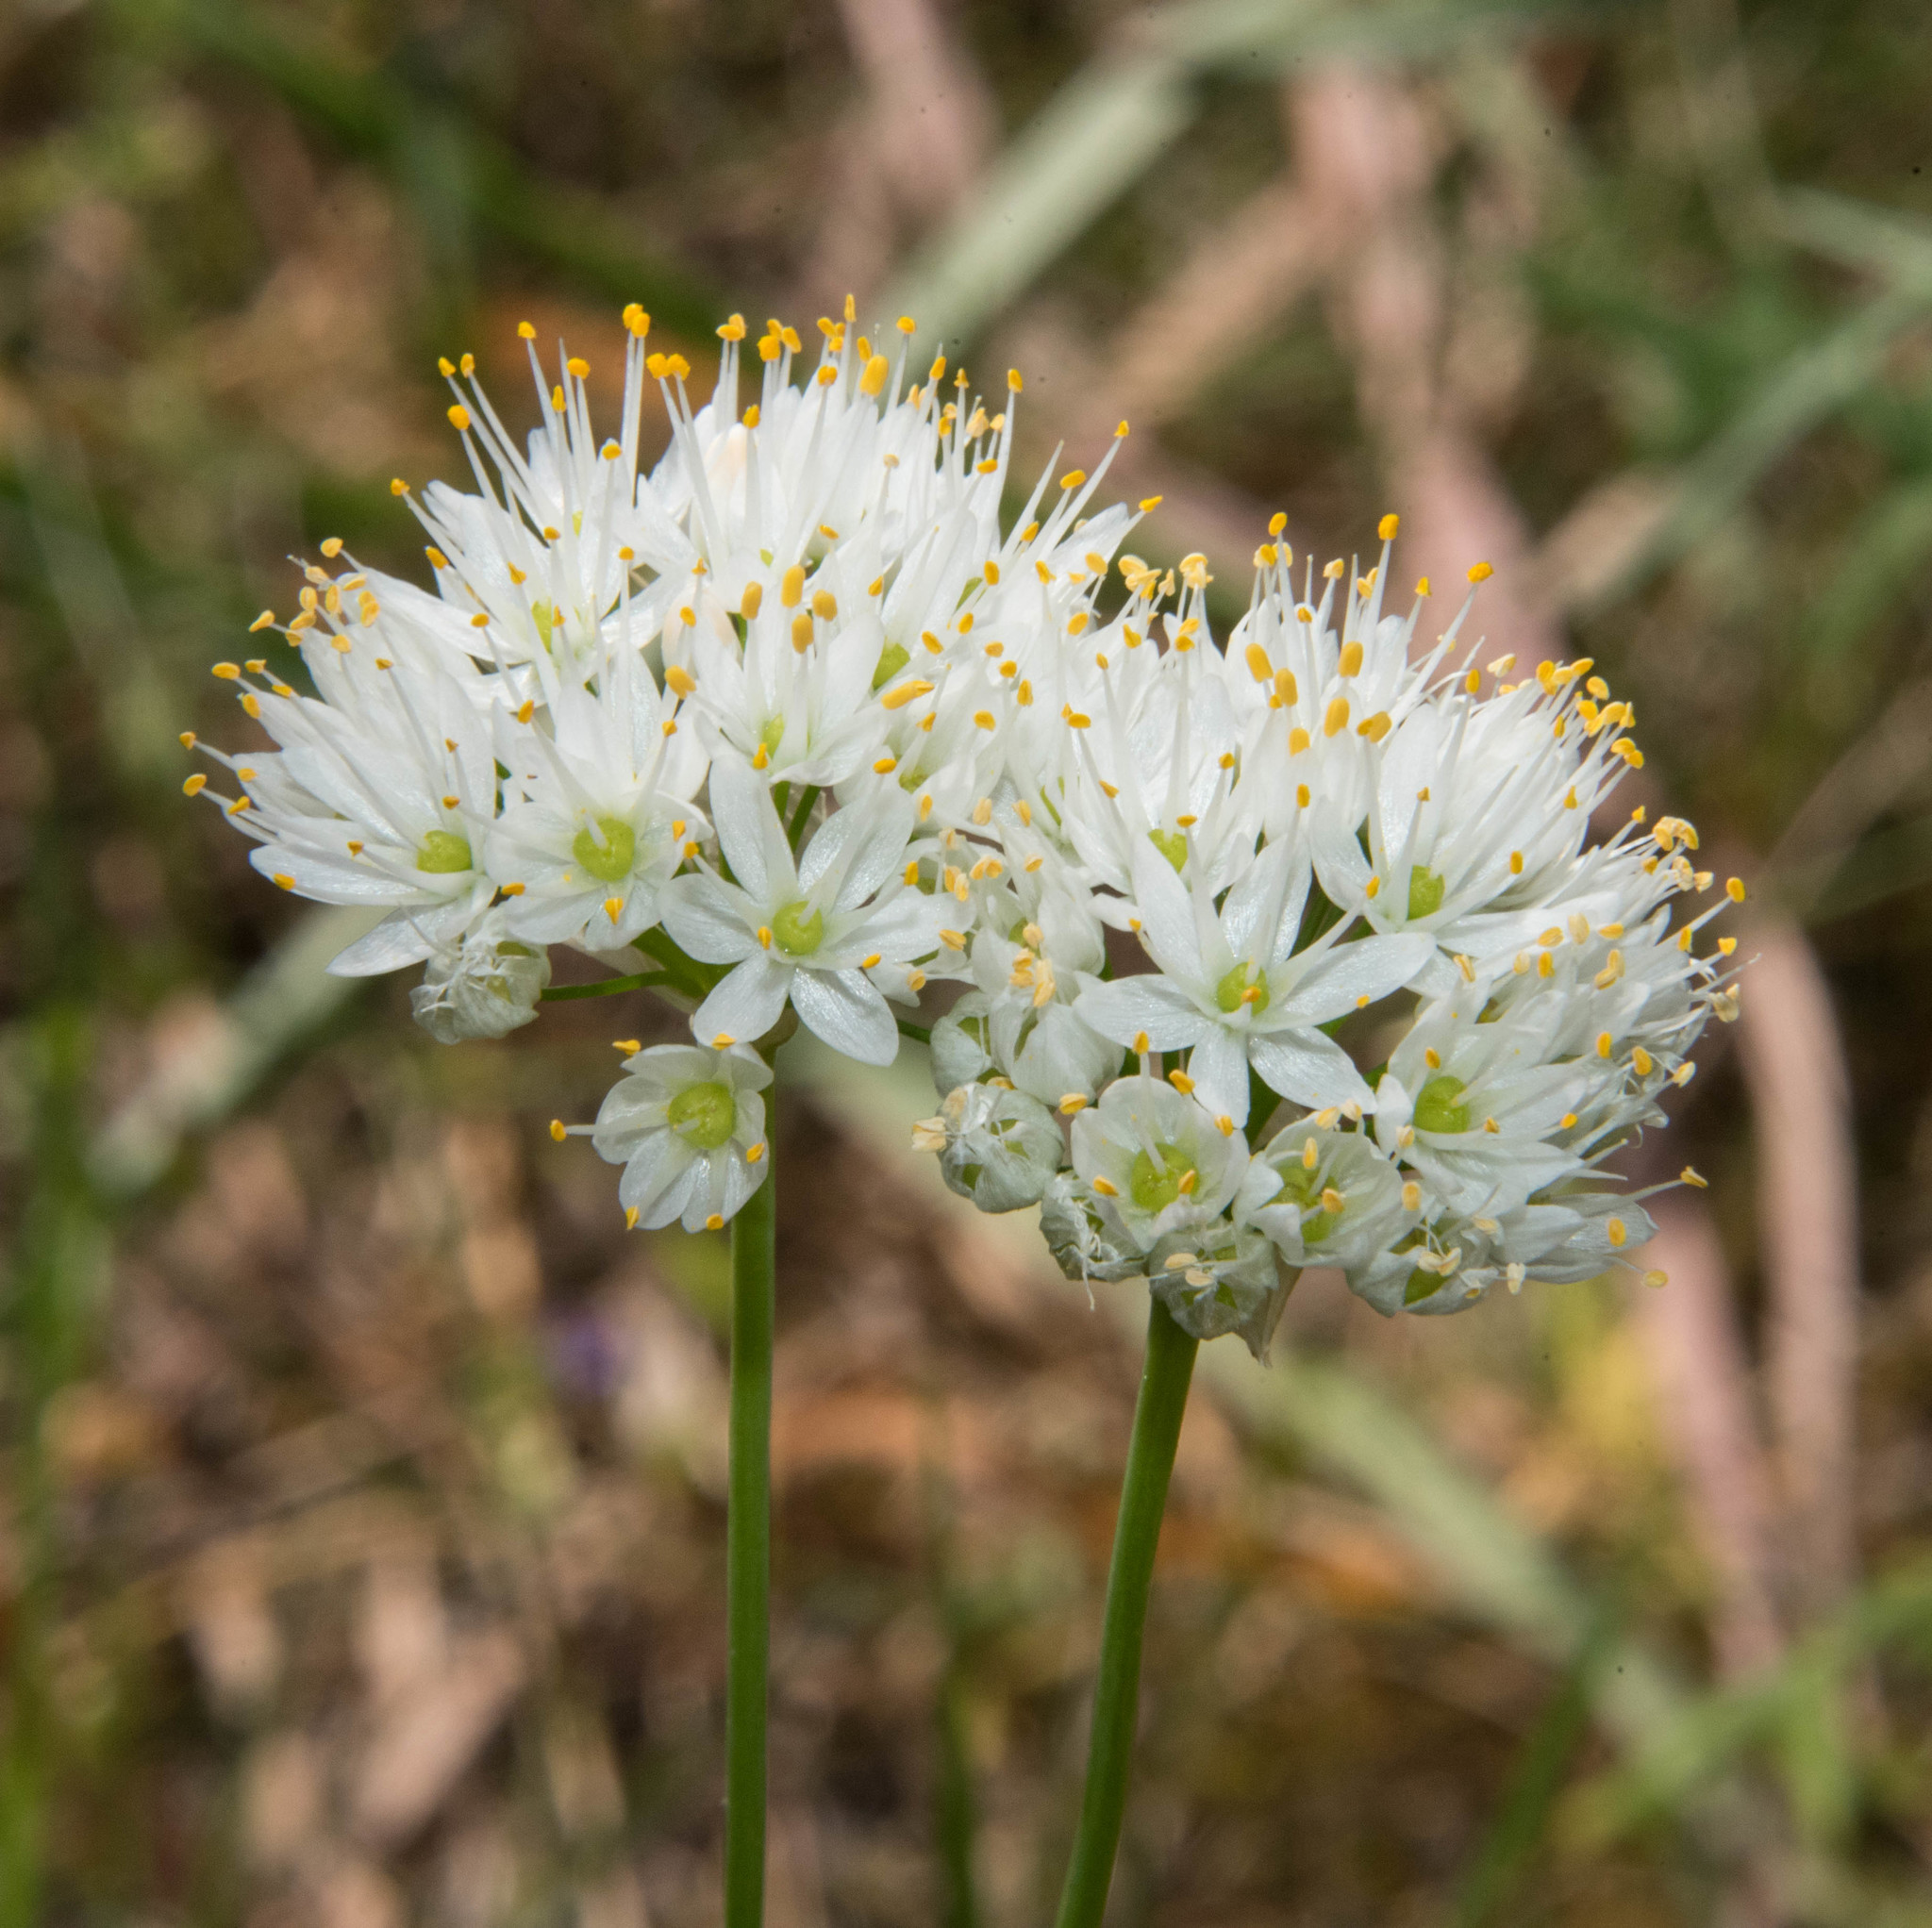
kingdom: Plantae
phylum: Tracheophyta
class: Liliopsida
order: Asparagales
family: Amaryllidaceae
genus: Allium
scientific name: Allium subvillosum
